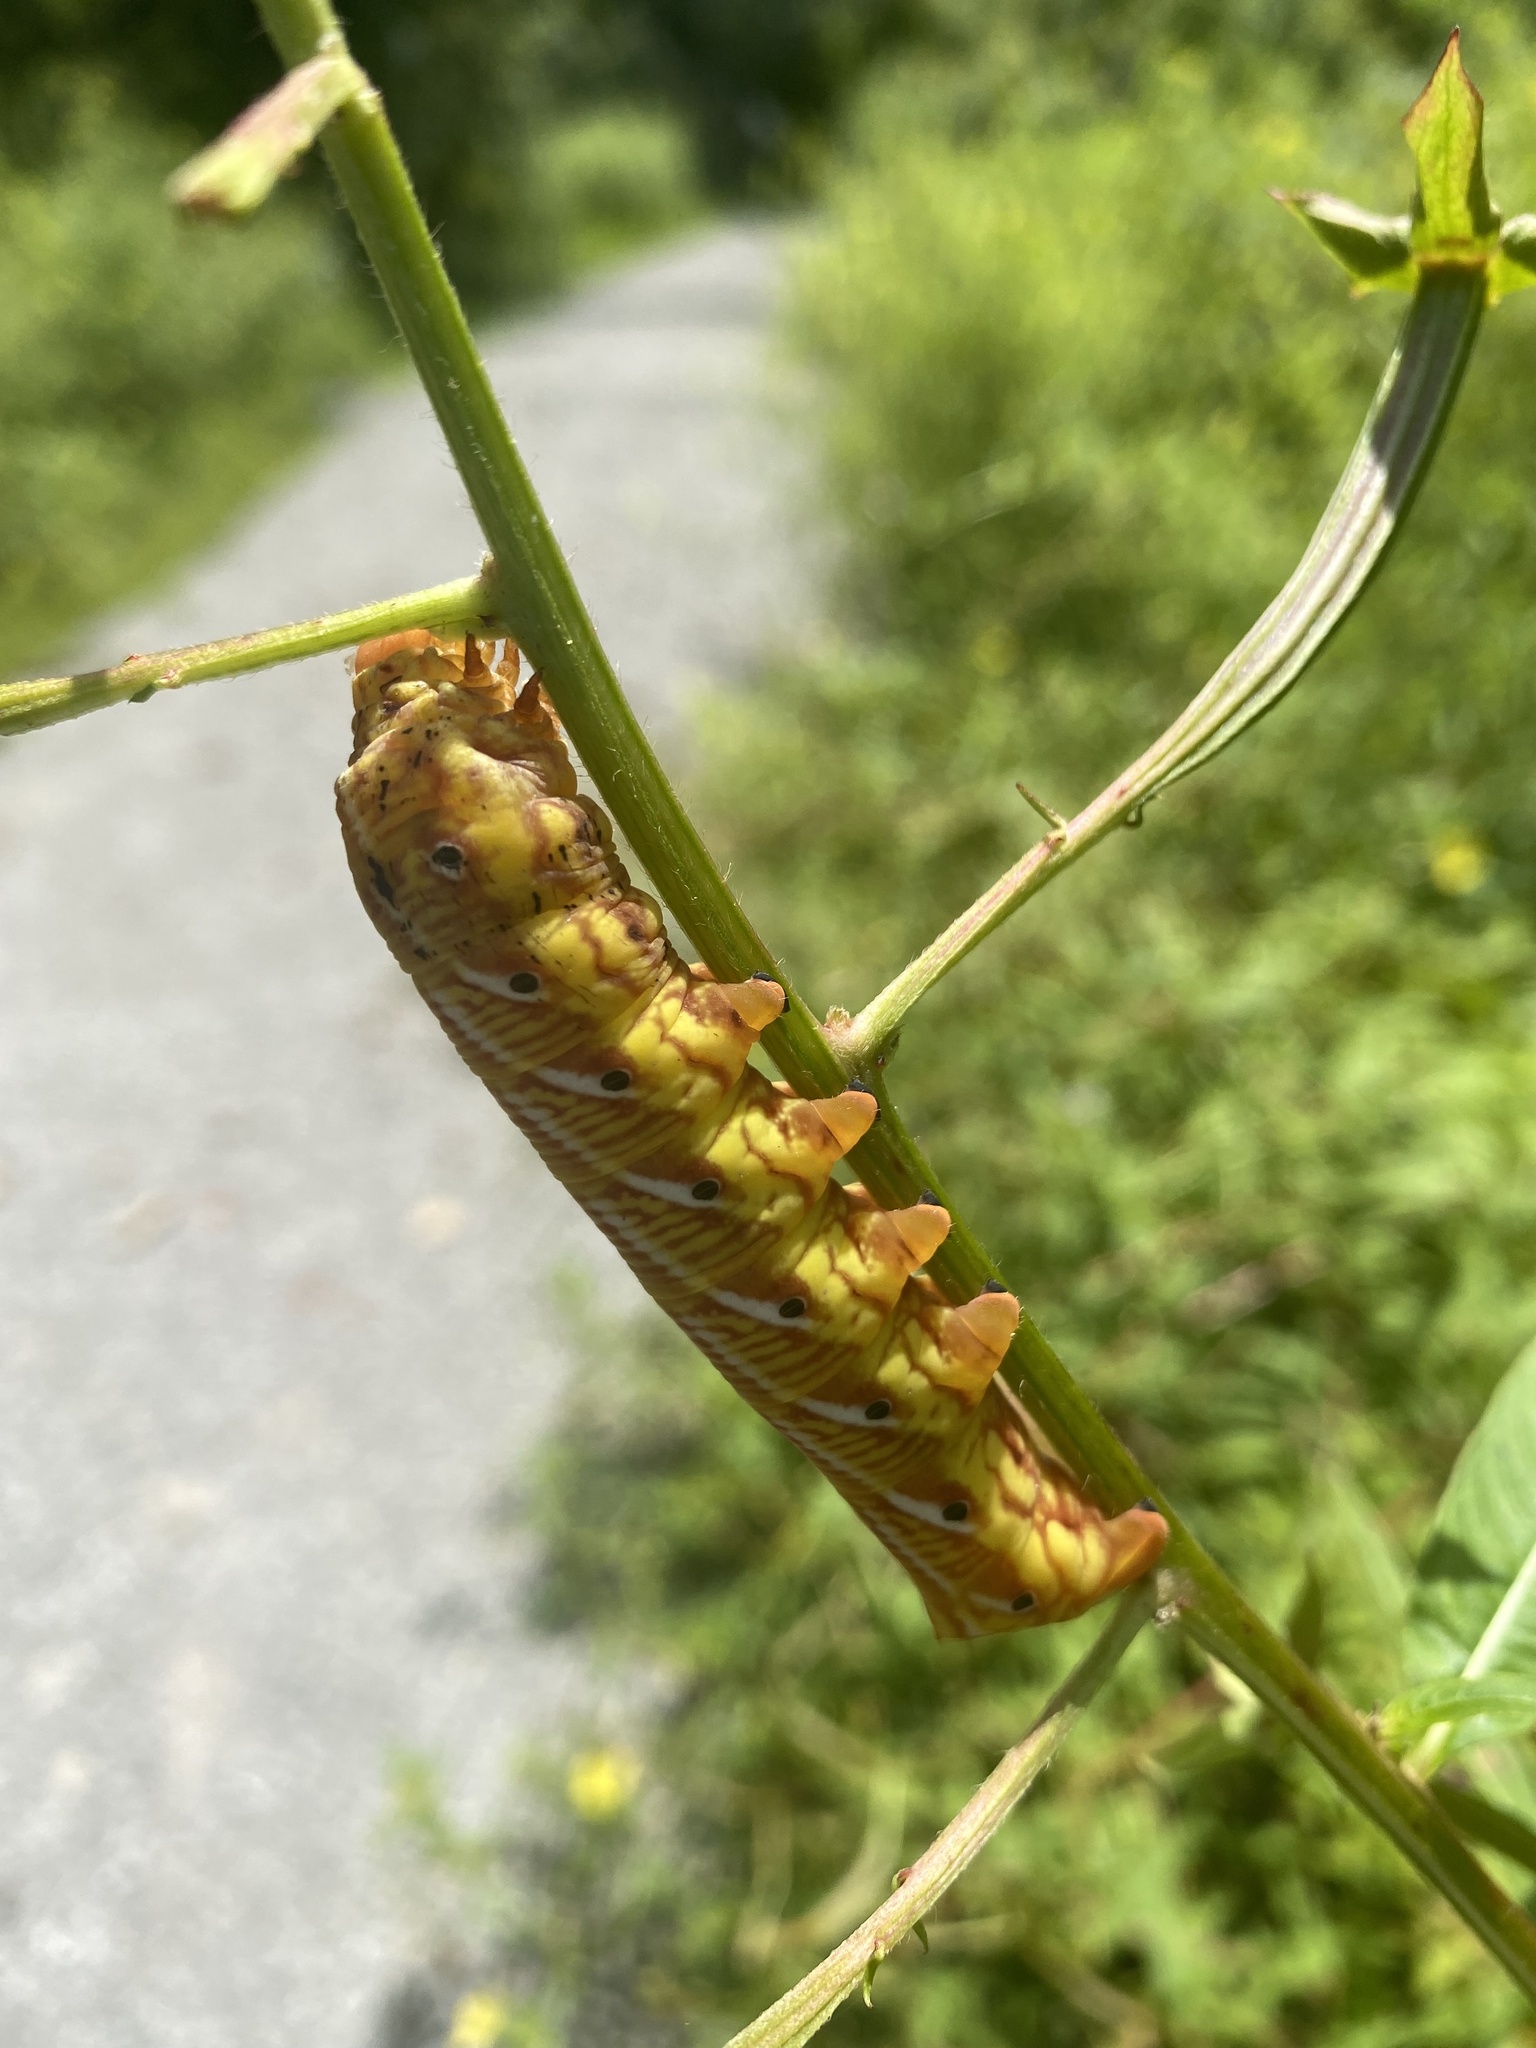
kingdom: Animalia
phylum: Arthropoda
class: Insecta
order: Lepidoptera
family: Sphingidae
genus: Eumorpha
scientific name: Eumorpha fasciatus
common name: Banded sphinx
